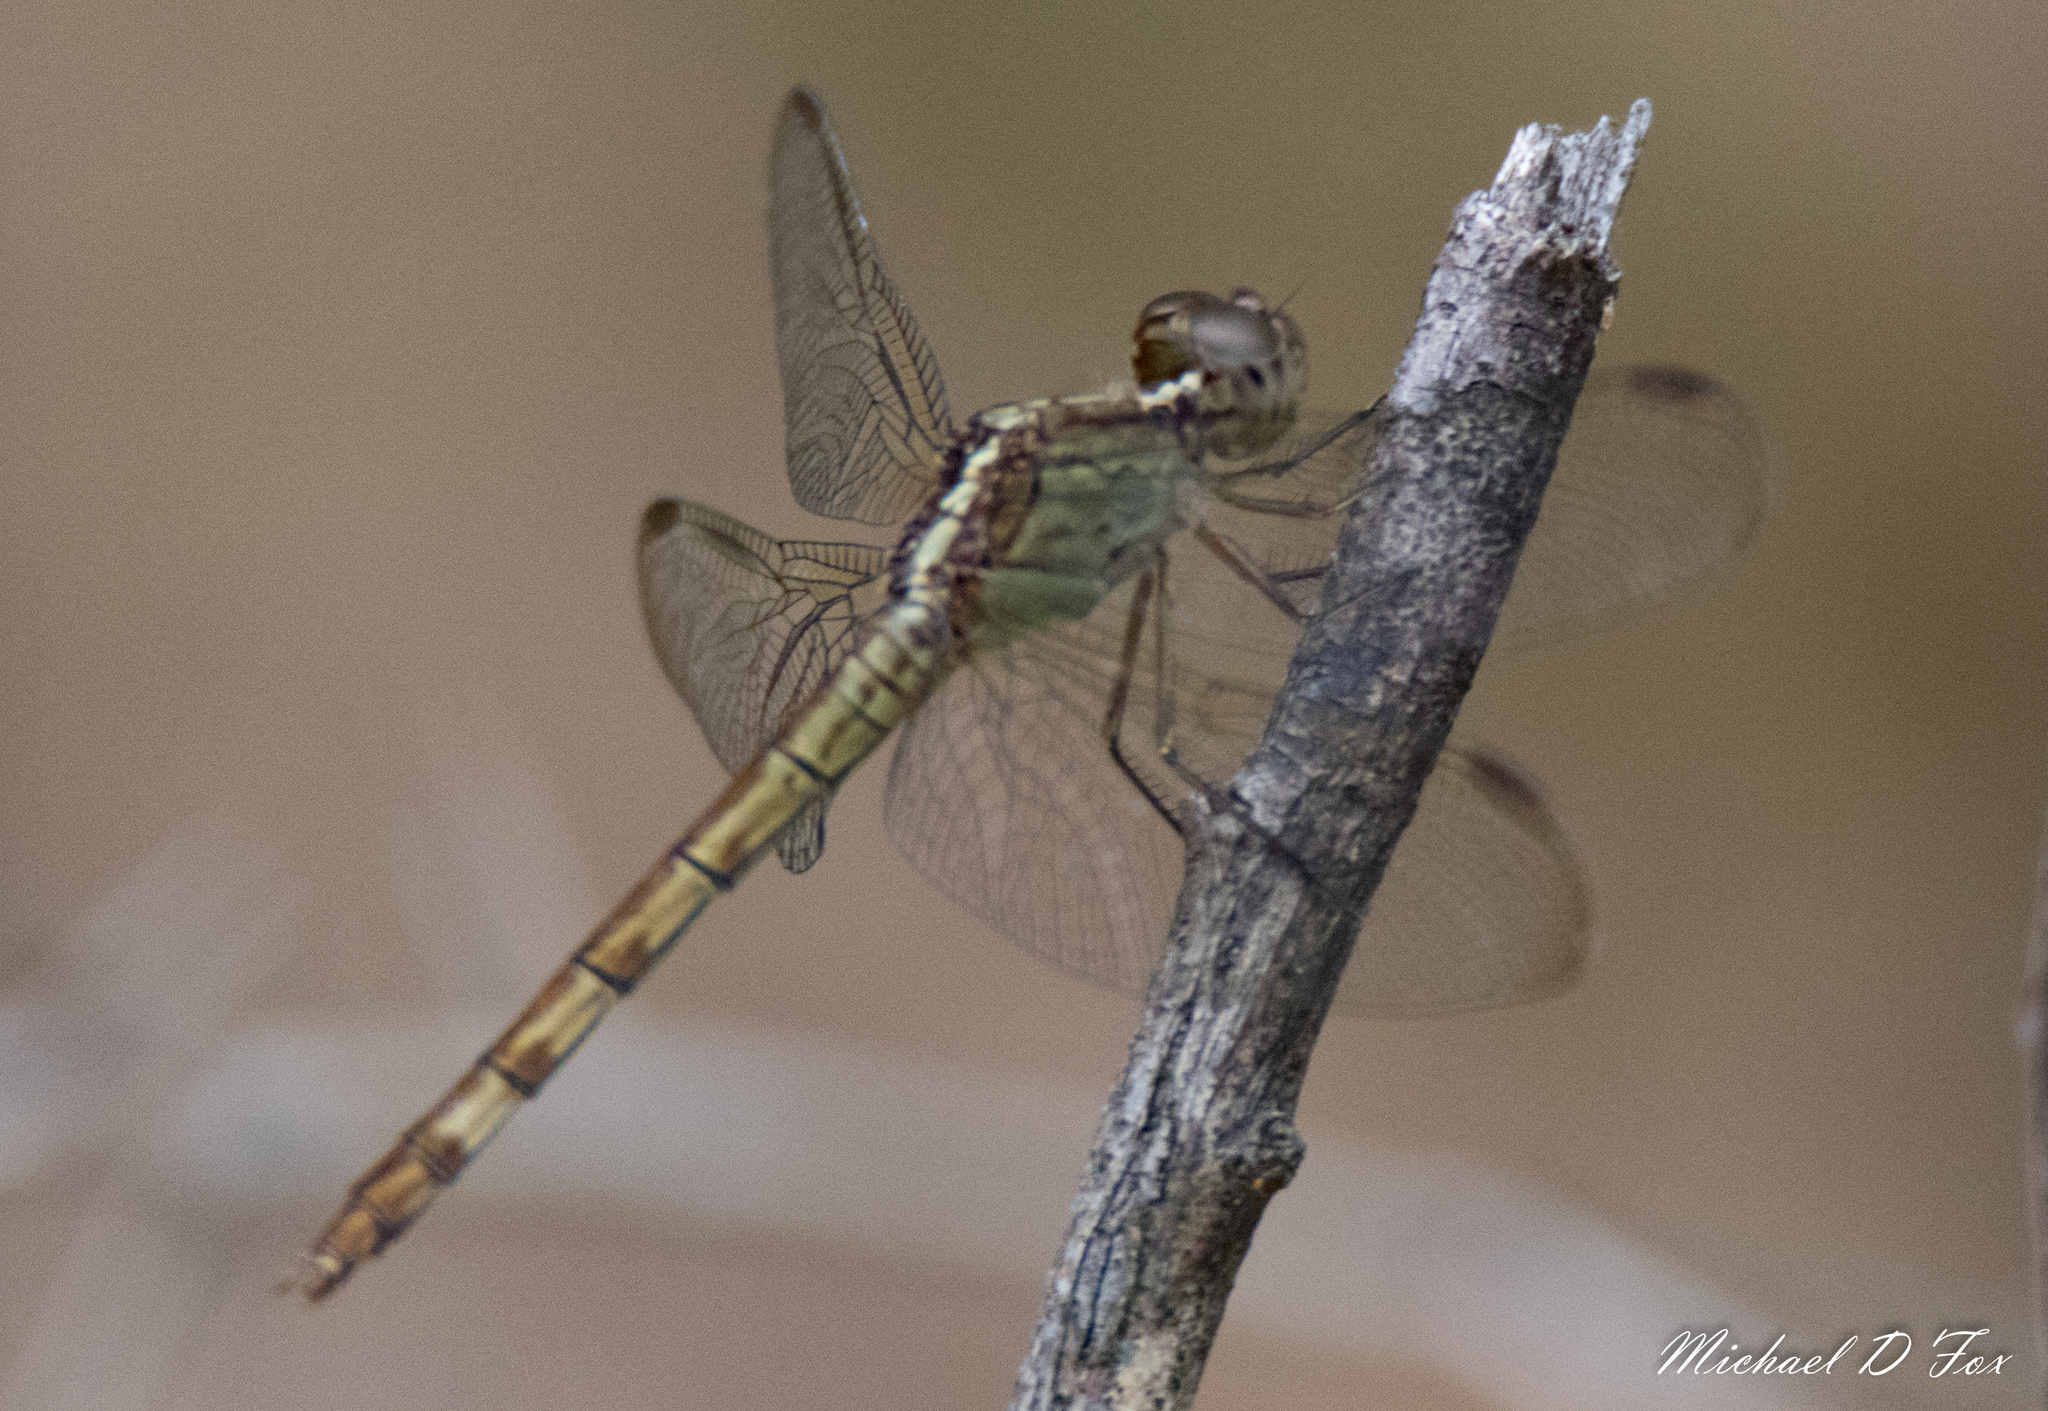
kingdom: Animalia
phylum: Arthropoda
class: Insecta
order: Odonata
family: Libellulidae
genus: Erythrodiplax
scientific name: Erythrodiplax umbrata
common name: Band-winged dragonlet
